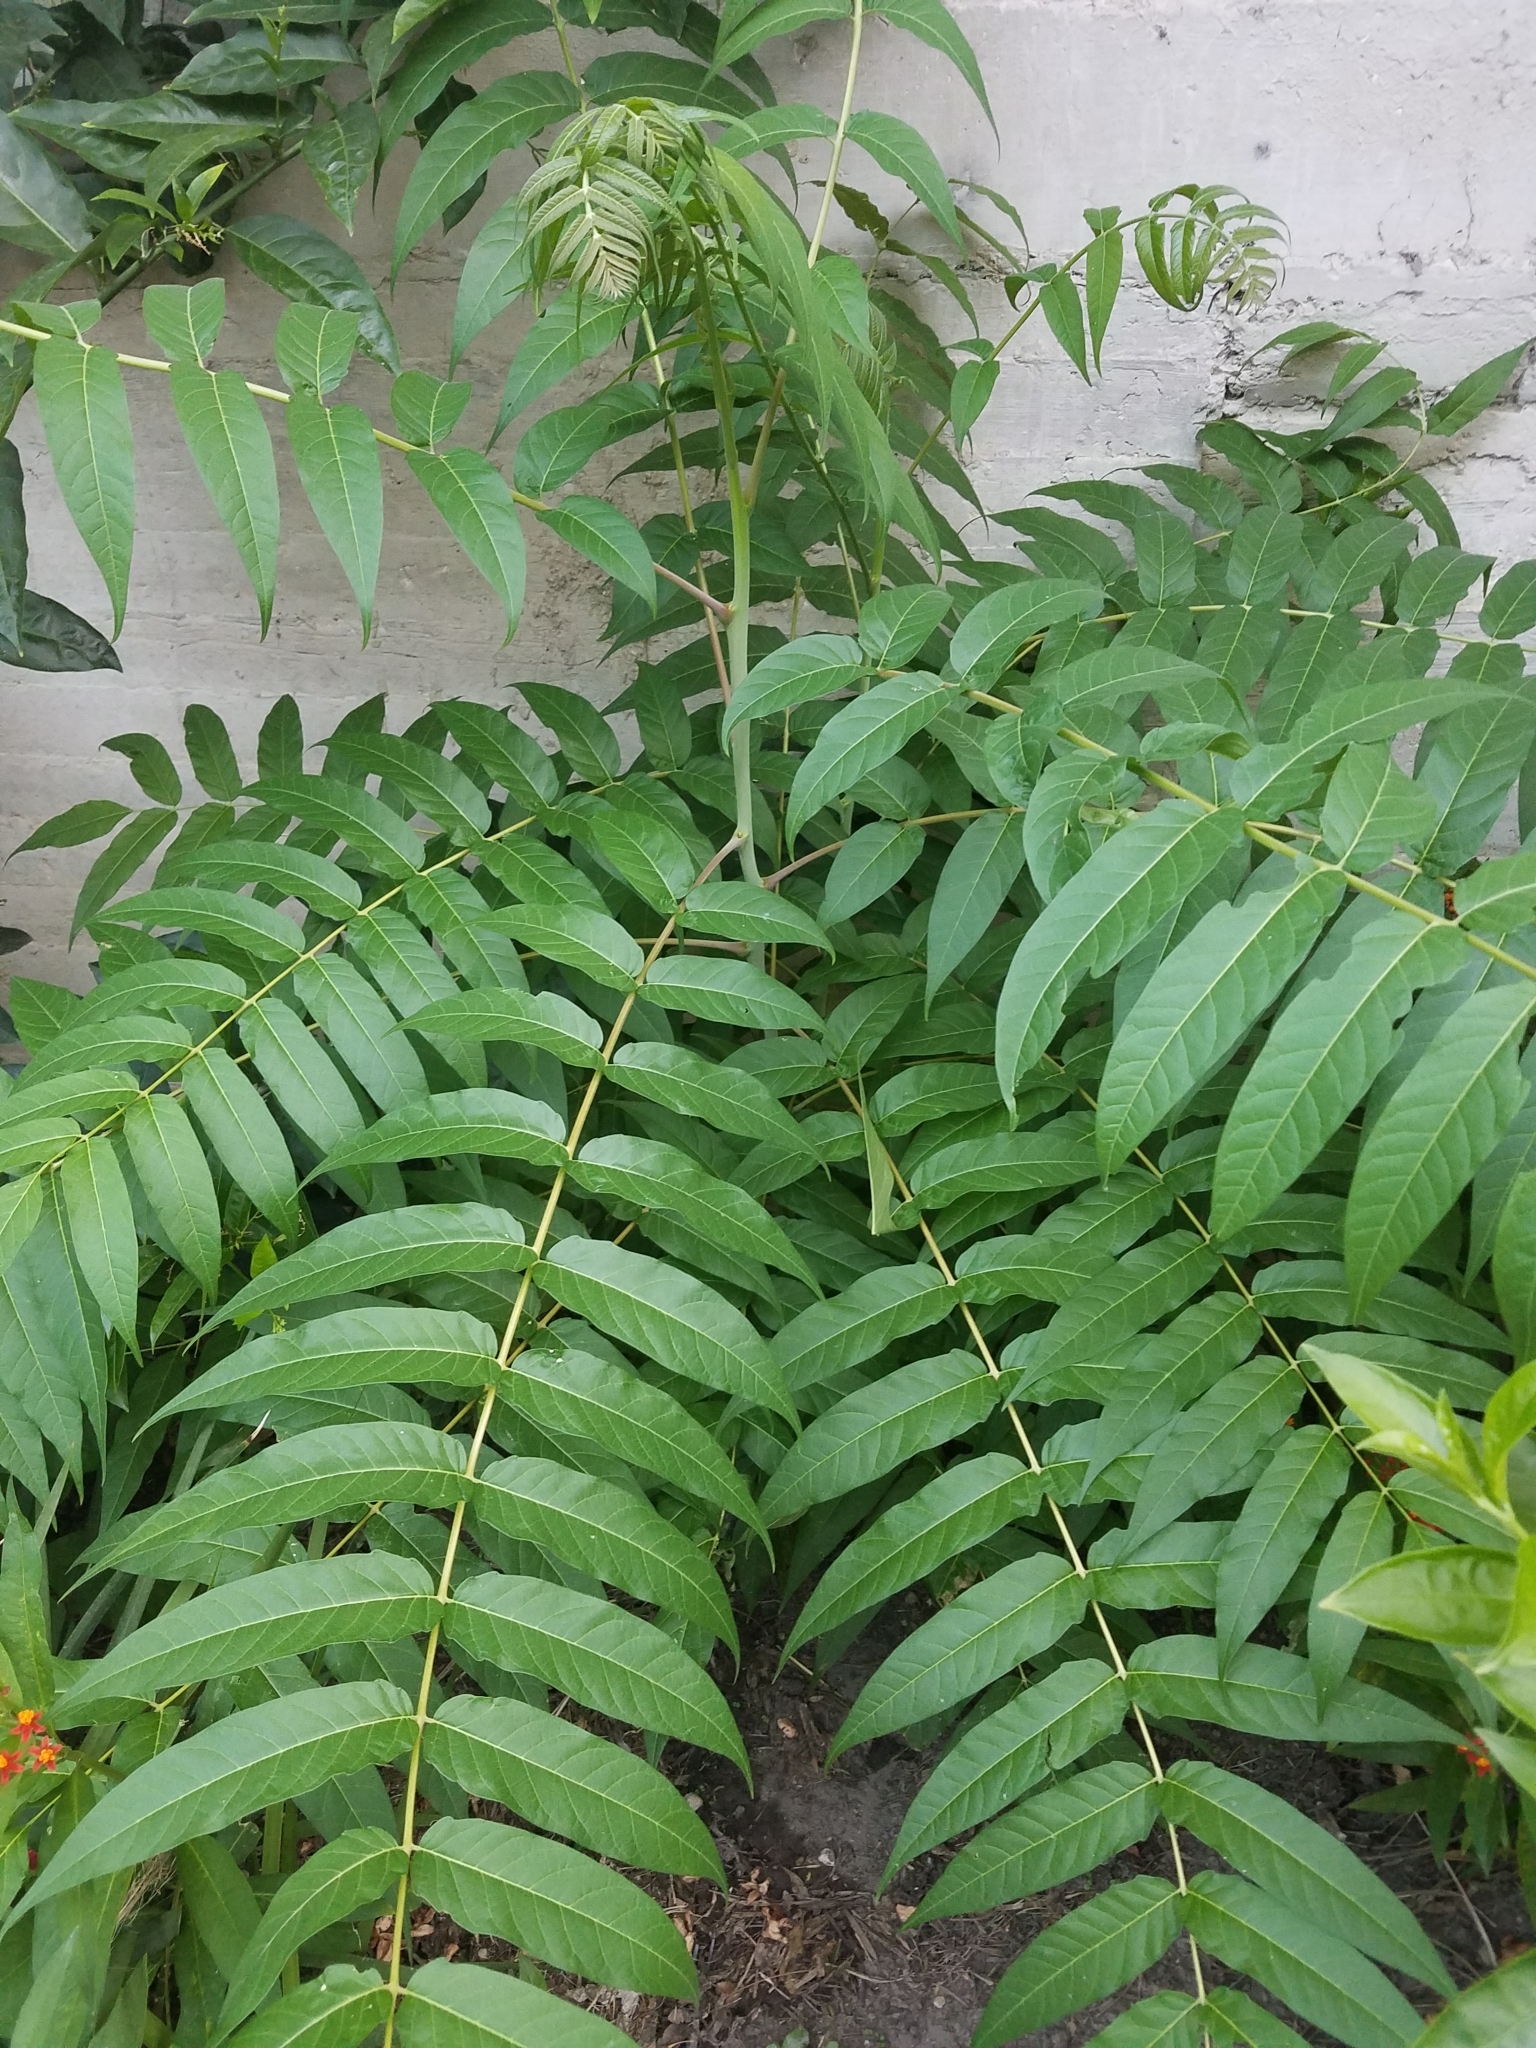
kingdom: Plantae
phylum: Tracheophyta
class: Magnoliopsida
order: Sapindales
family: Simaroubaceae
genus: Ailanthus
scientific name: Ailanthus altissima
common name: Tree-of-heaven
